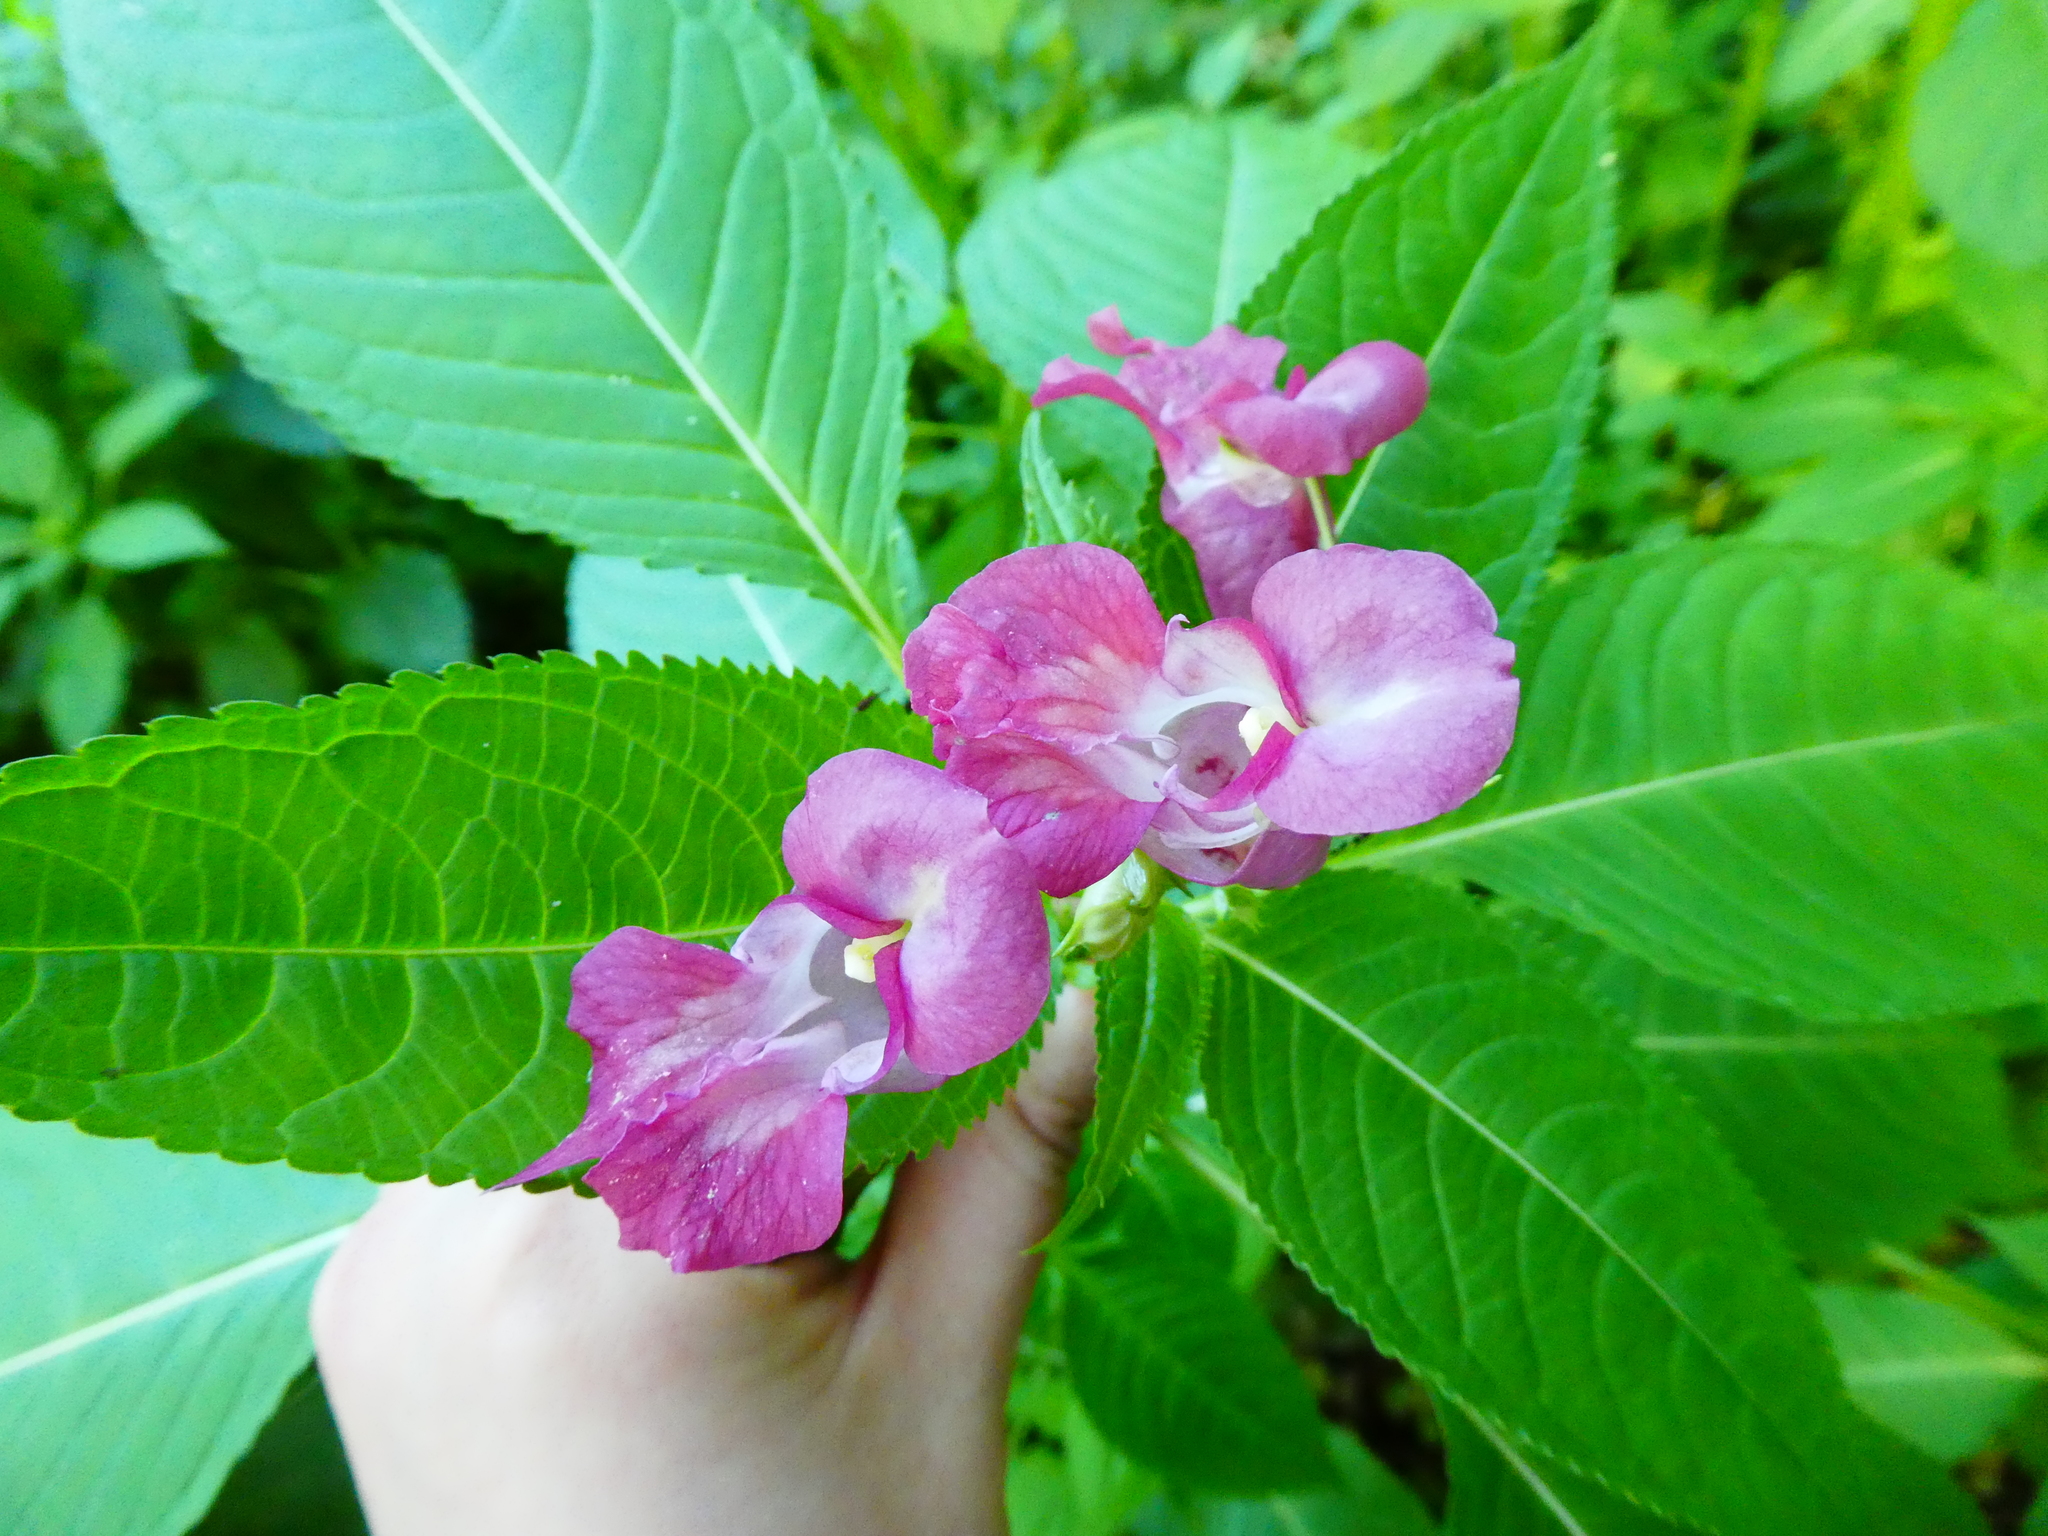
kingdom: Plantae
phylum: Tracheophyta
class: Magnoliopsida
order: Ericales
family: Balsaminaceae
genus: Impatiens
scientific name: Impatiens glandulifera
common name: Himalayan balsam
